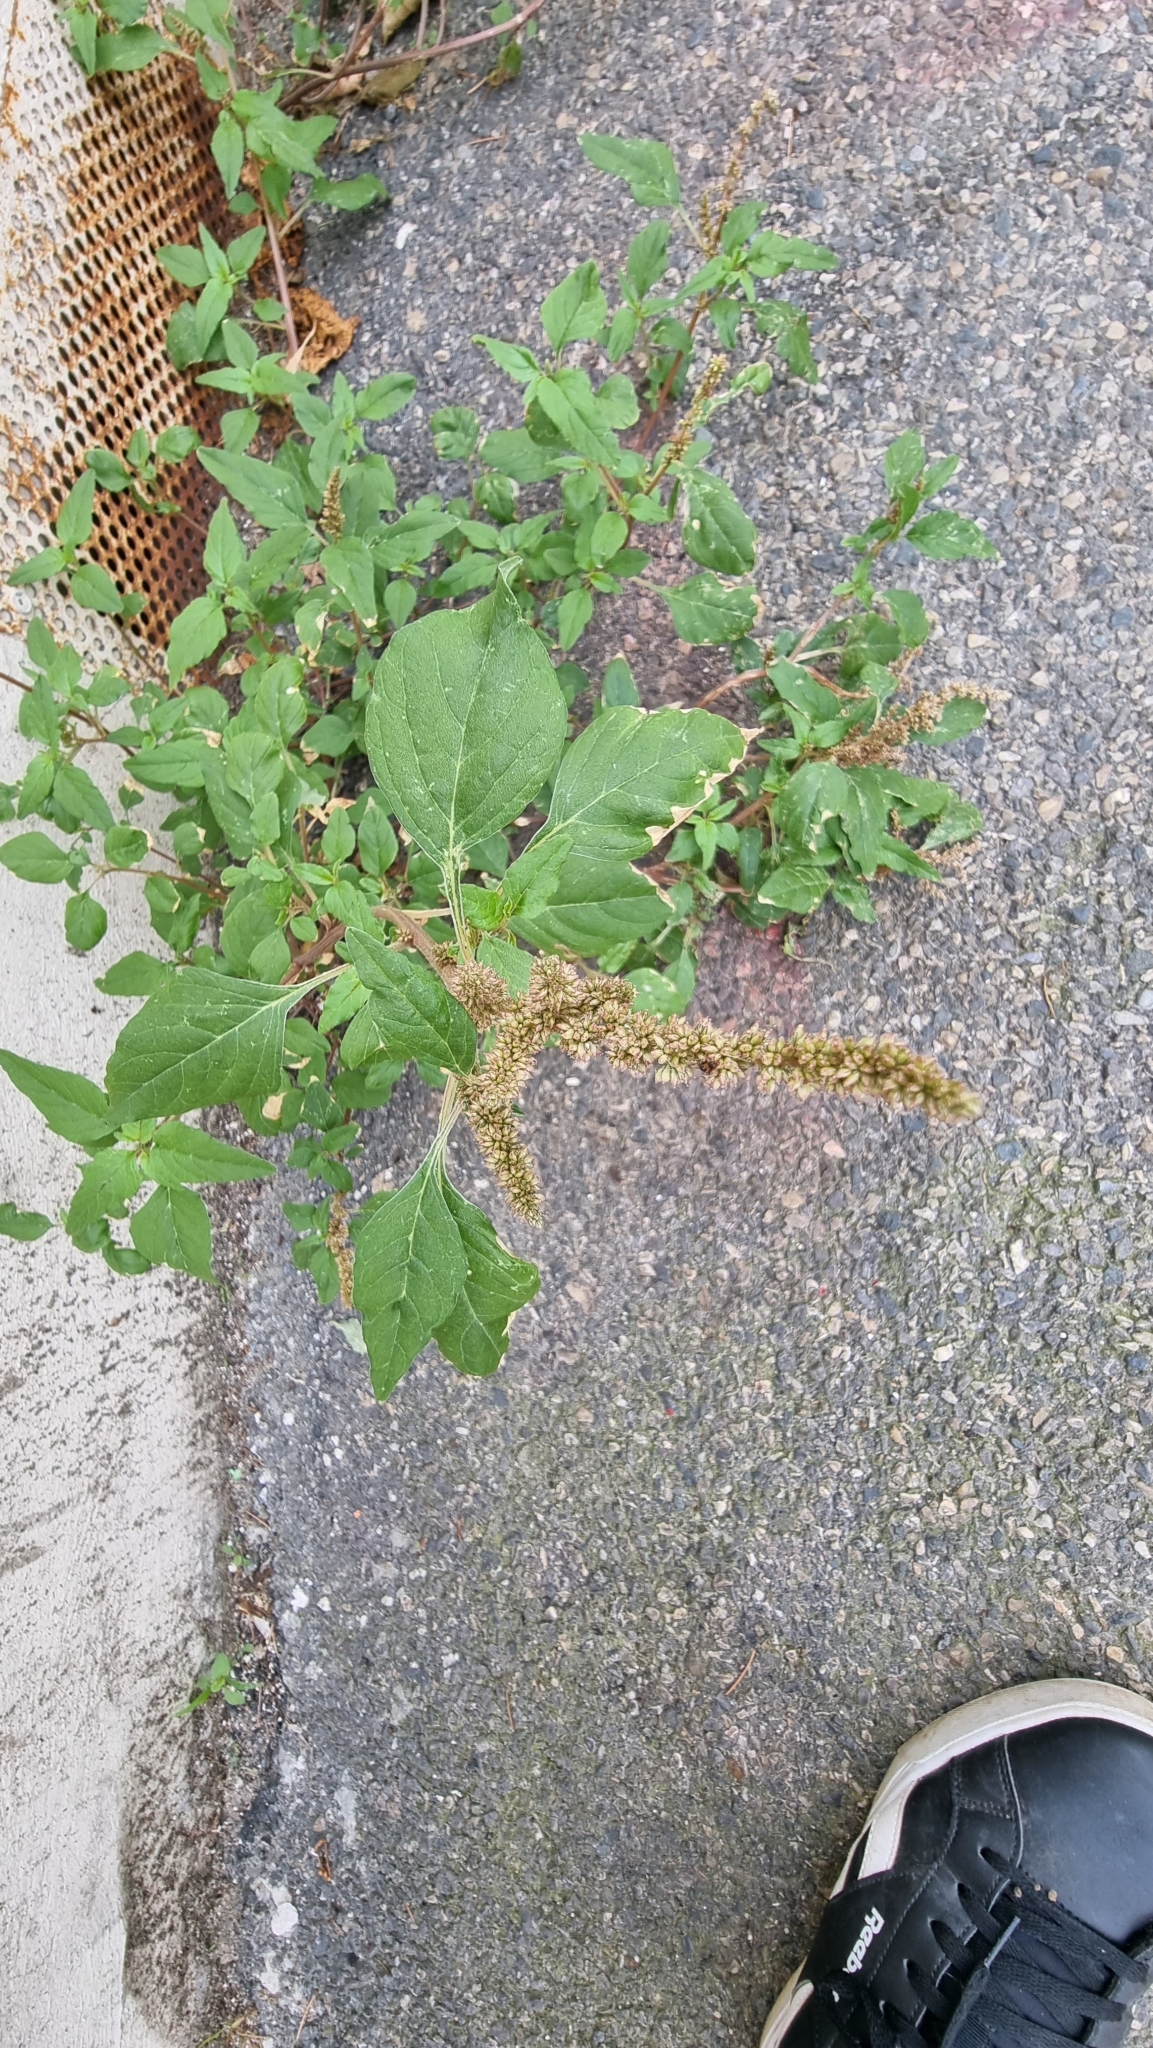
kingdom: Plantae
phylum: Tracheophyta
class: Magnoliopsida
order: Caryophyllales
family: Amaranthaceae
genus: Amaranthus
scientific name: Amaranthus deflexus
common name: Perennial pigweed
